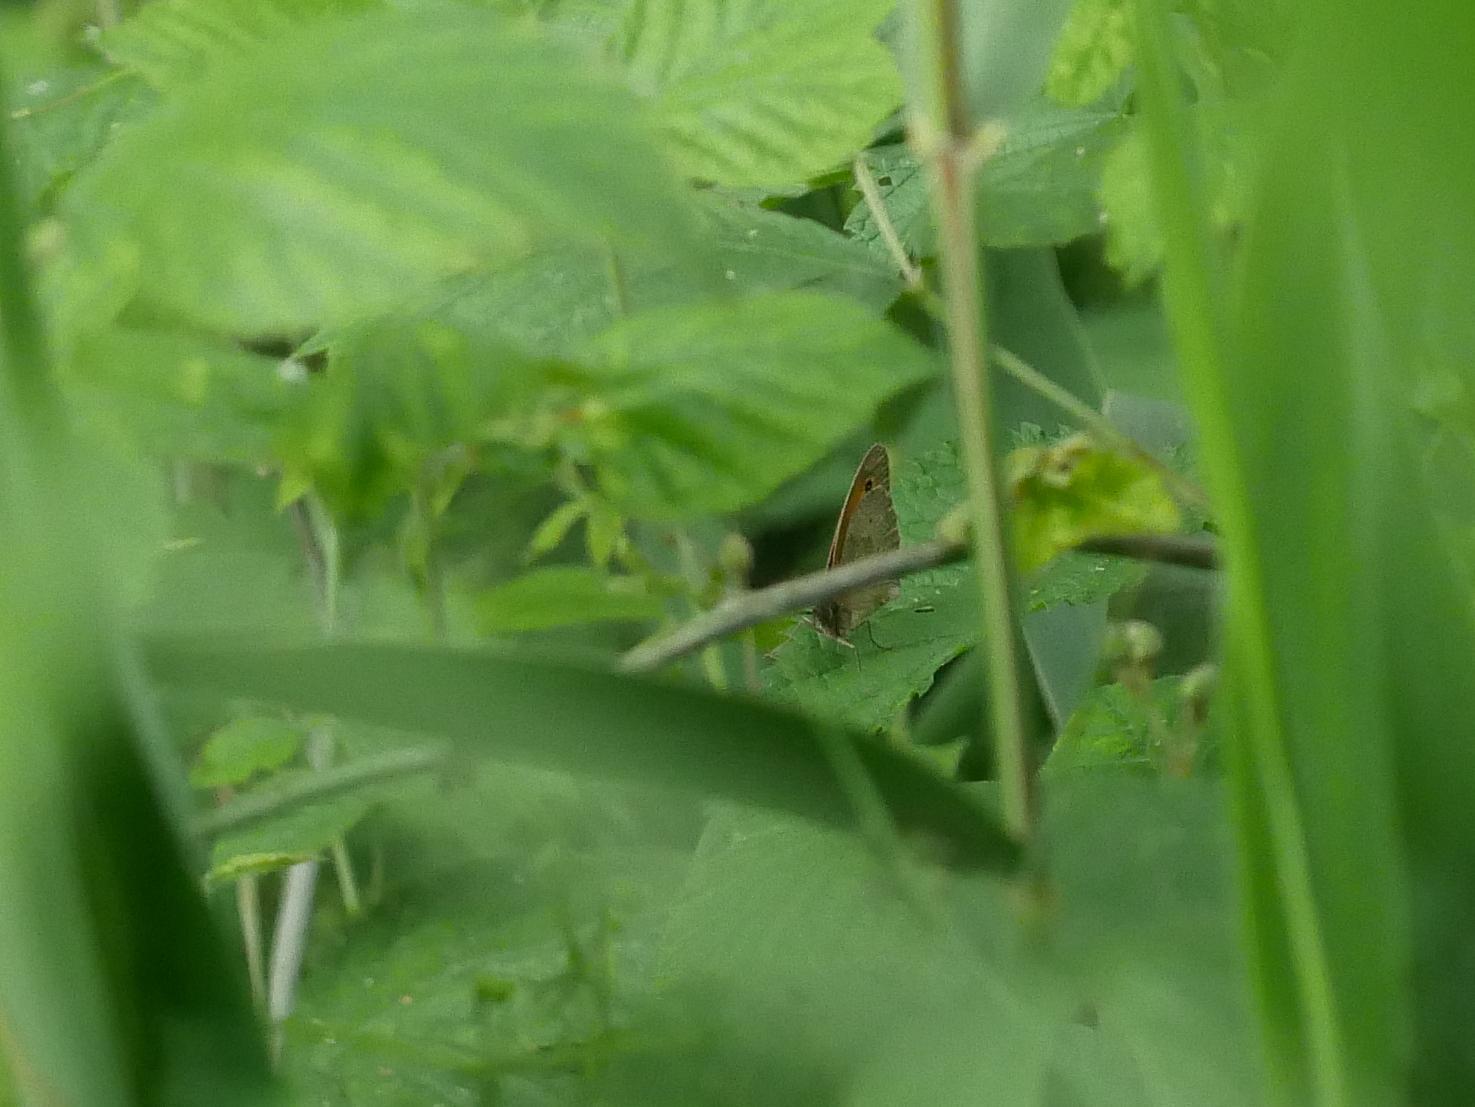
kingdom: Animalia
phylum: Arthropoda
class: Insecta
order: Lepidoptera
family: Nymphalidae
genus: Maniola
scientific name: Maniola jurtina
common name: Meadow brown
